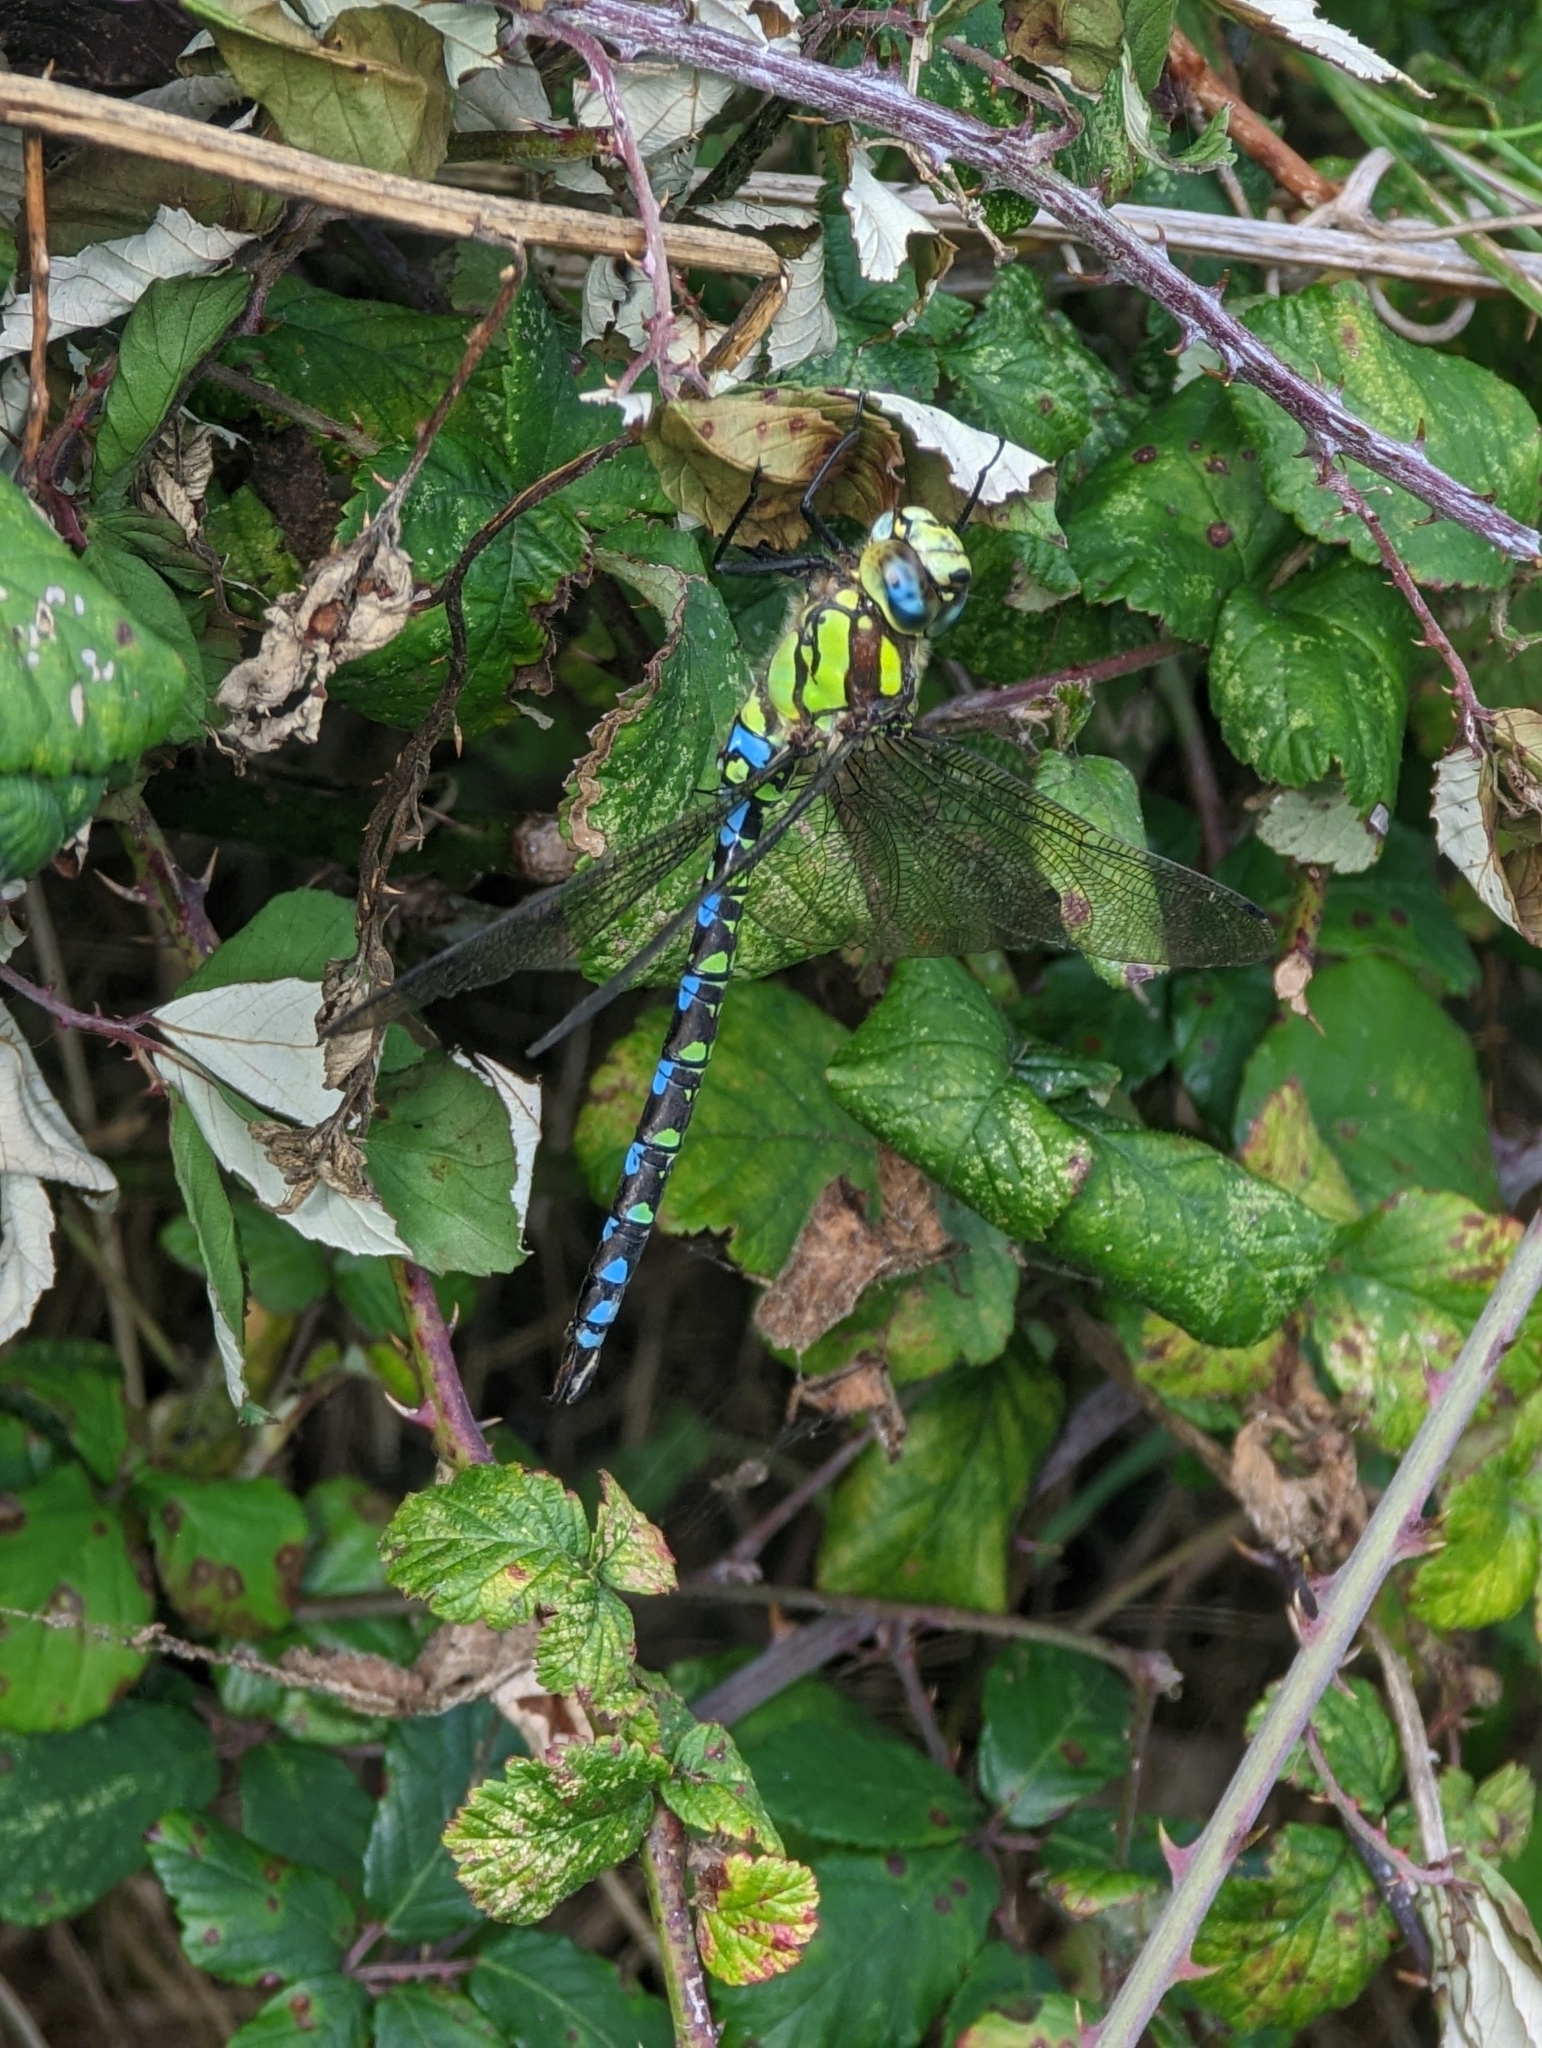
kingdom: Animalia
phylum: Arthropoda
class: Insecta
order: Odonata
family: Aeshnidae
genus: Aeshna
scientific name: Aeshna cyanea
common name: Southern hawker
